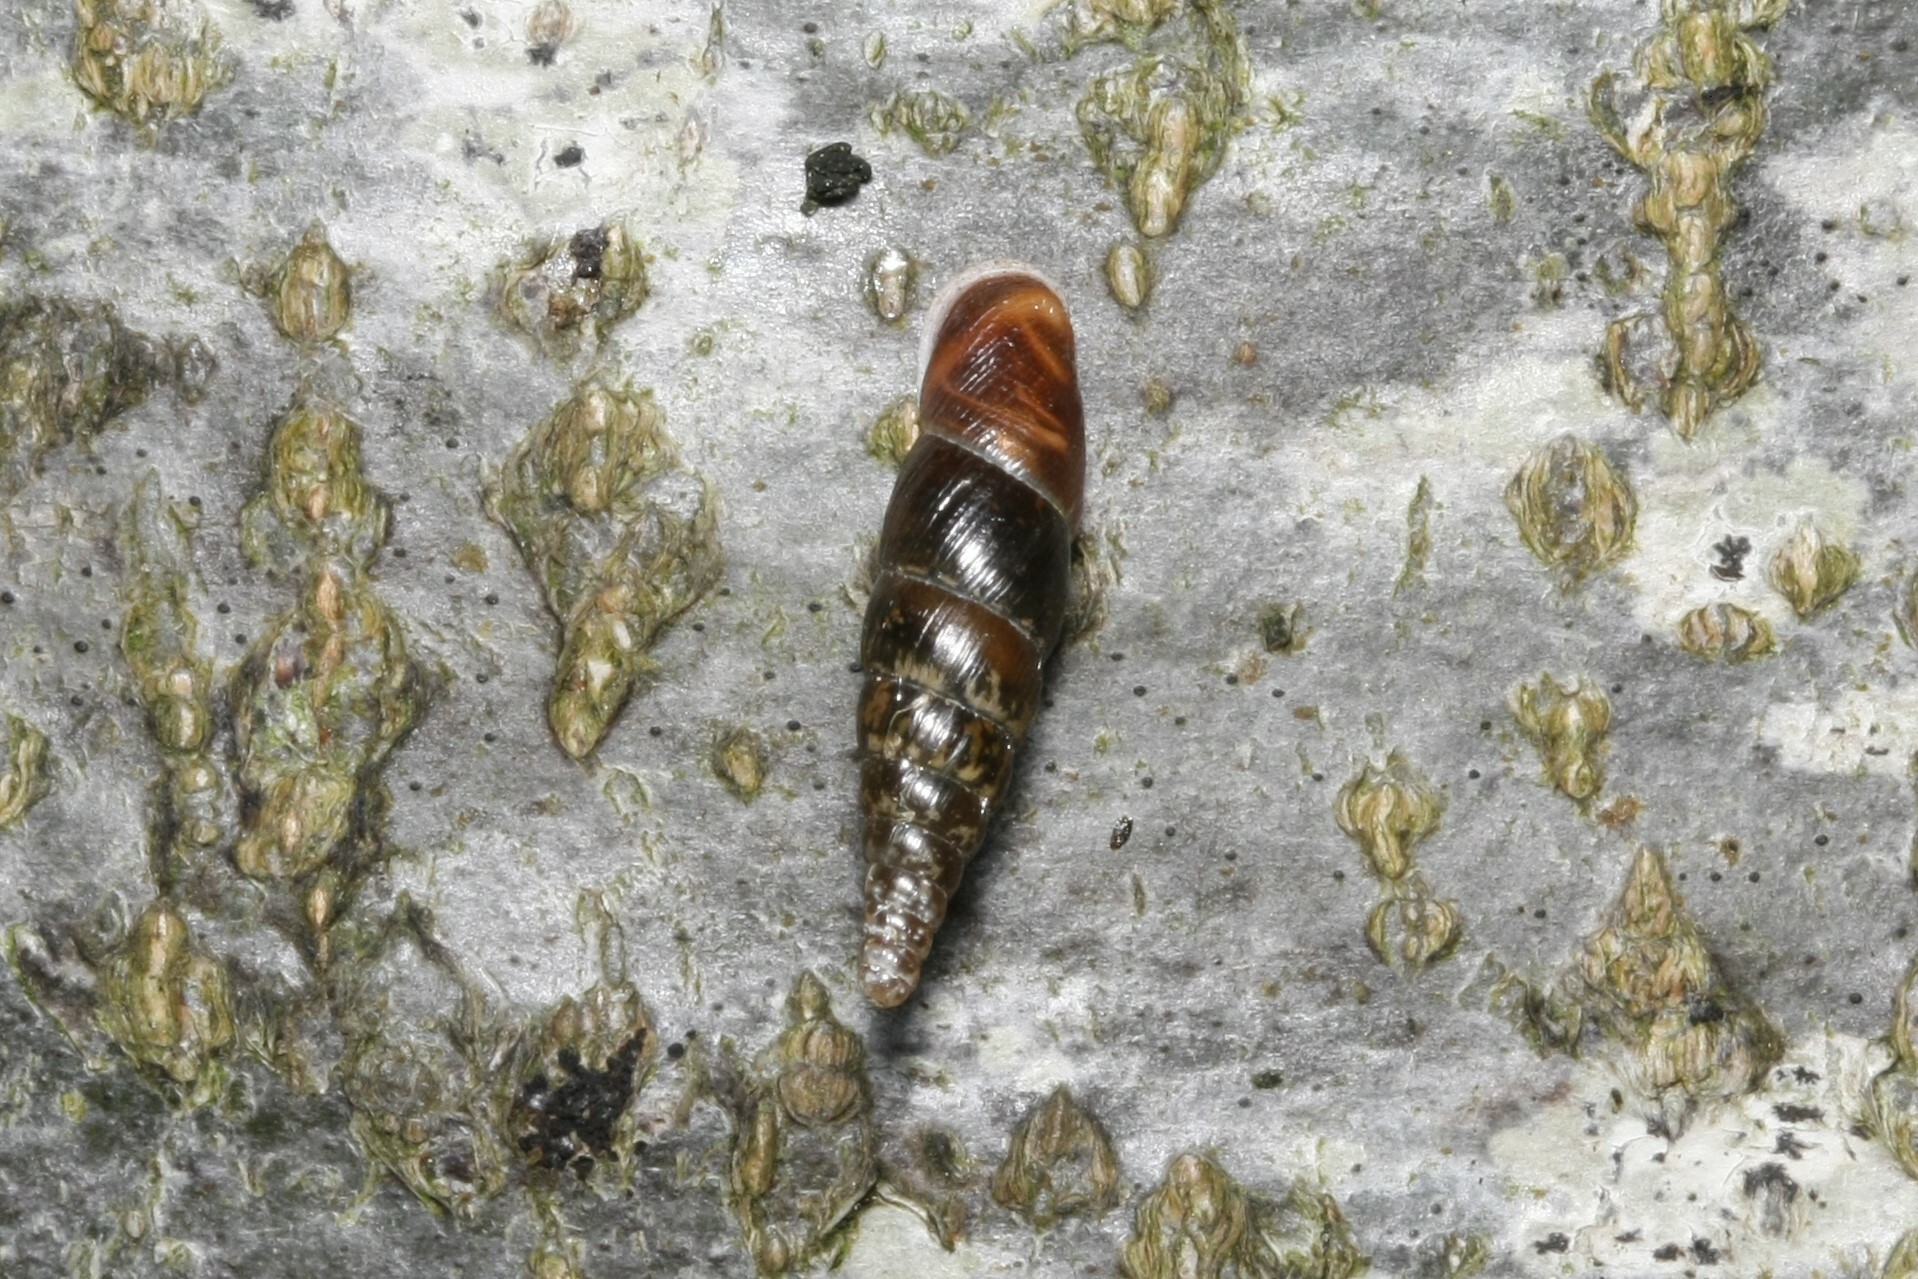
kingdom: Animalia
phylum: Mollusca
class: Gastropoda
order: Stylommatophora
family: Clausiliidae
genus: Cochlodina
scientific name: Cochlodina laminata
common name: Plaited door snail
